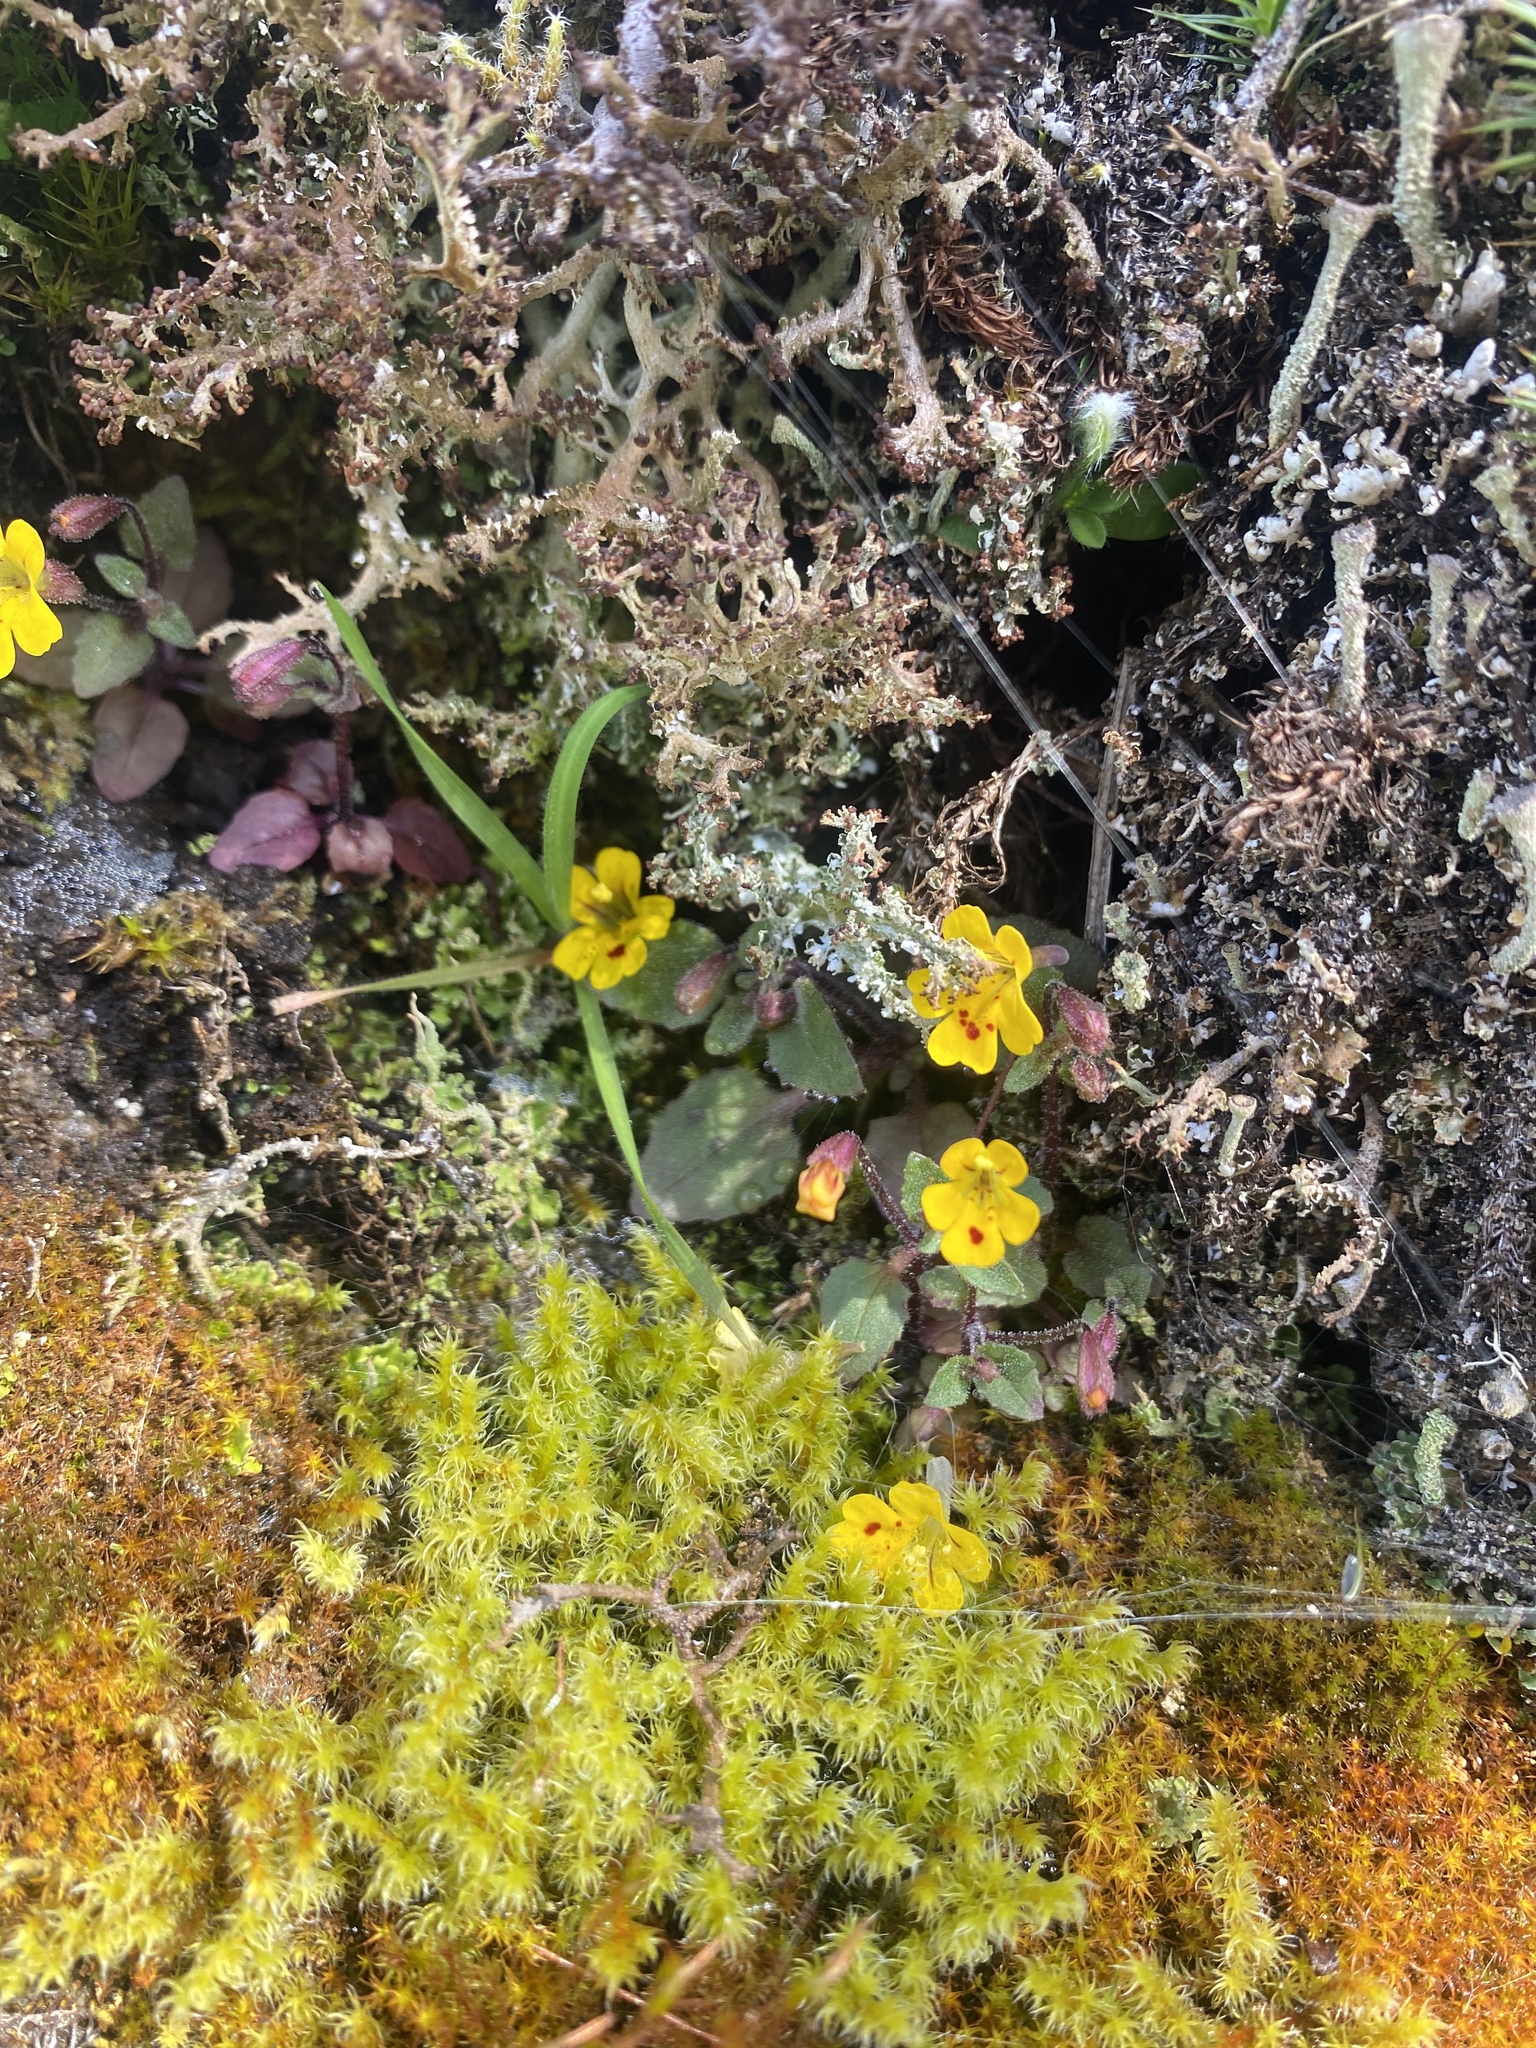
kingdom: Plantae
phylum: Tracheophyta
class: Magnoliopsida
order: Lamiales
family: Phrymaceae
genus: Erythranthe
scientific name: Erythranthe alsinoides
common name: Chickweed monkeyflower
